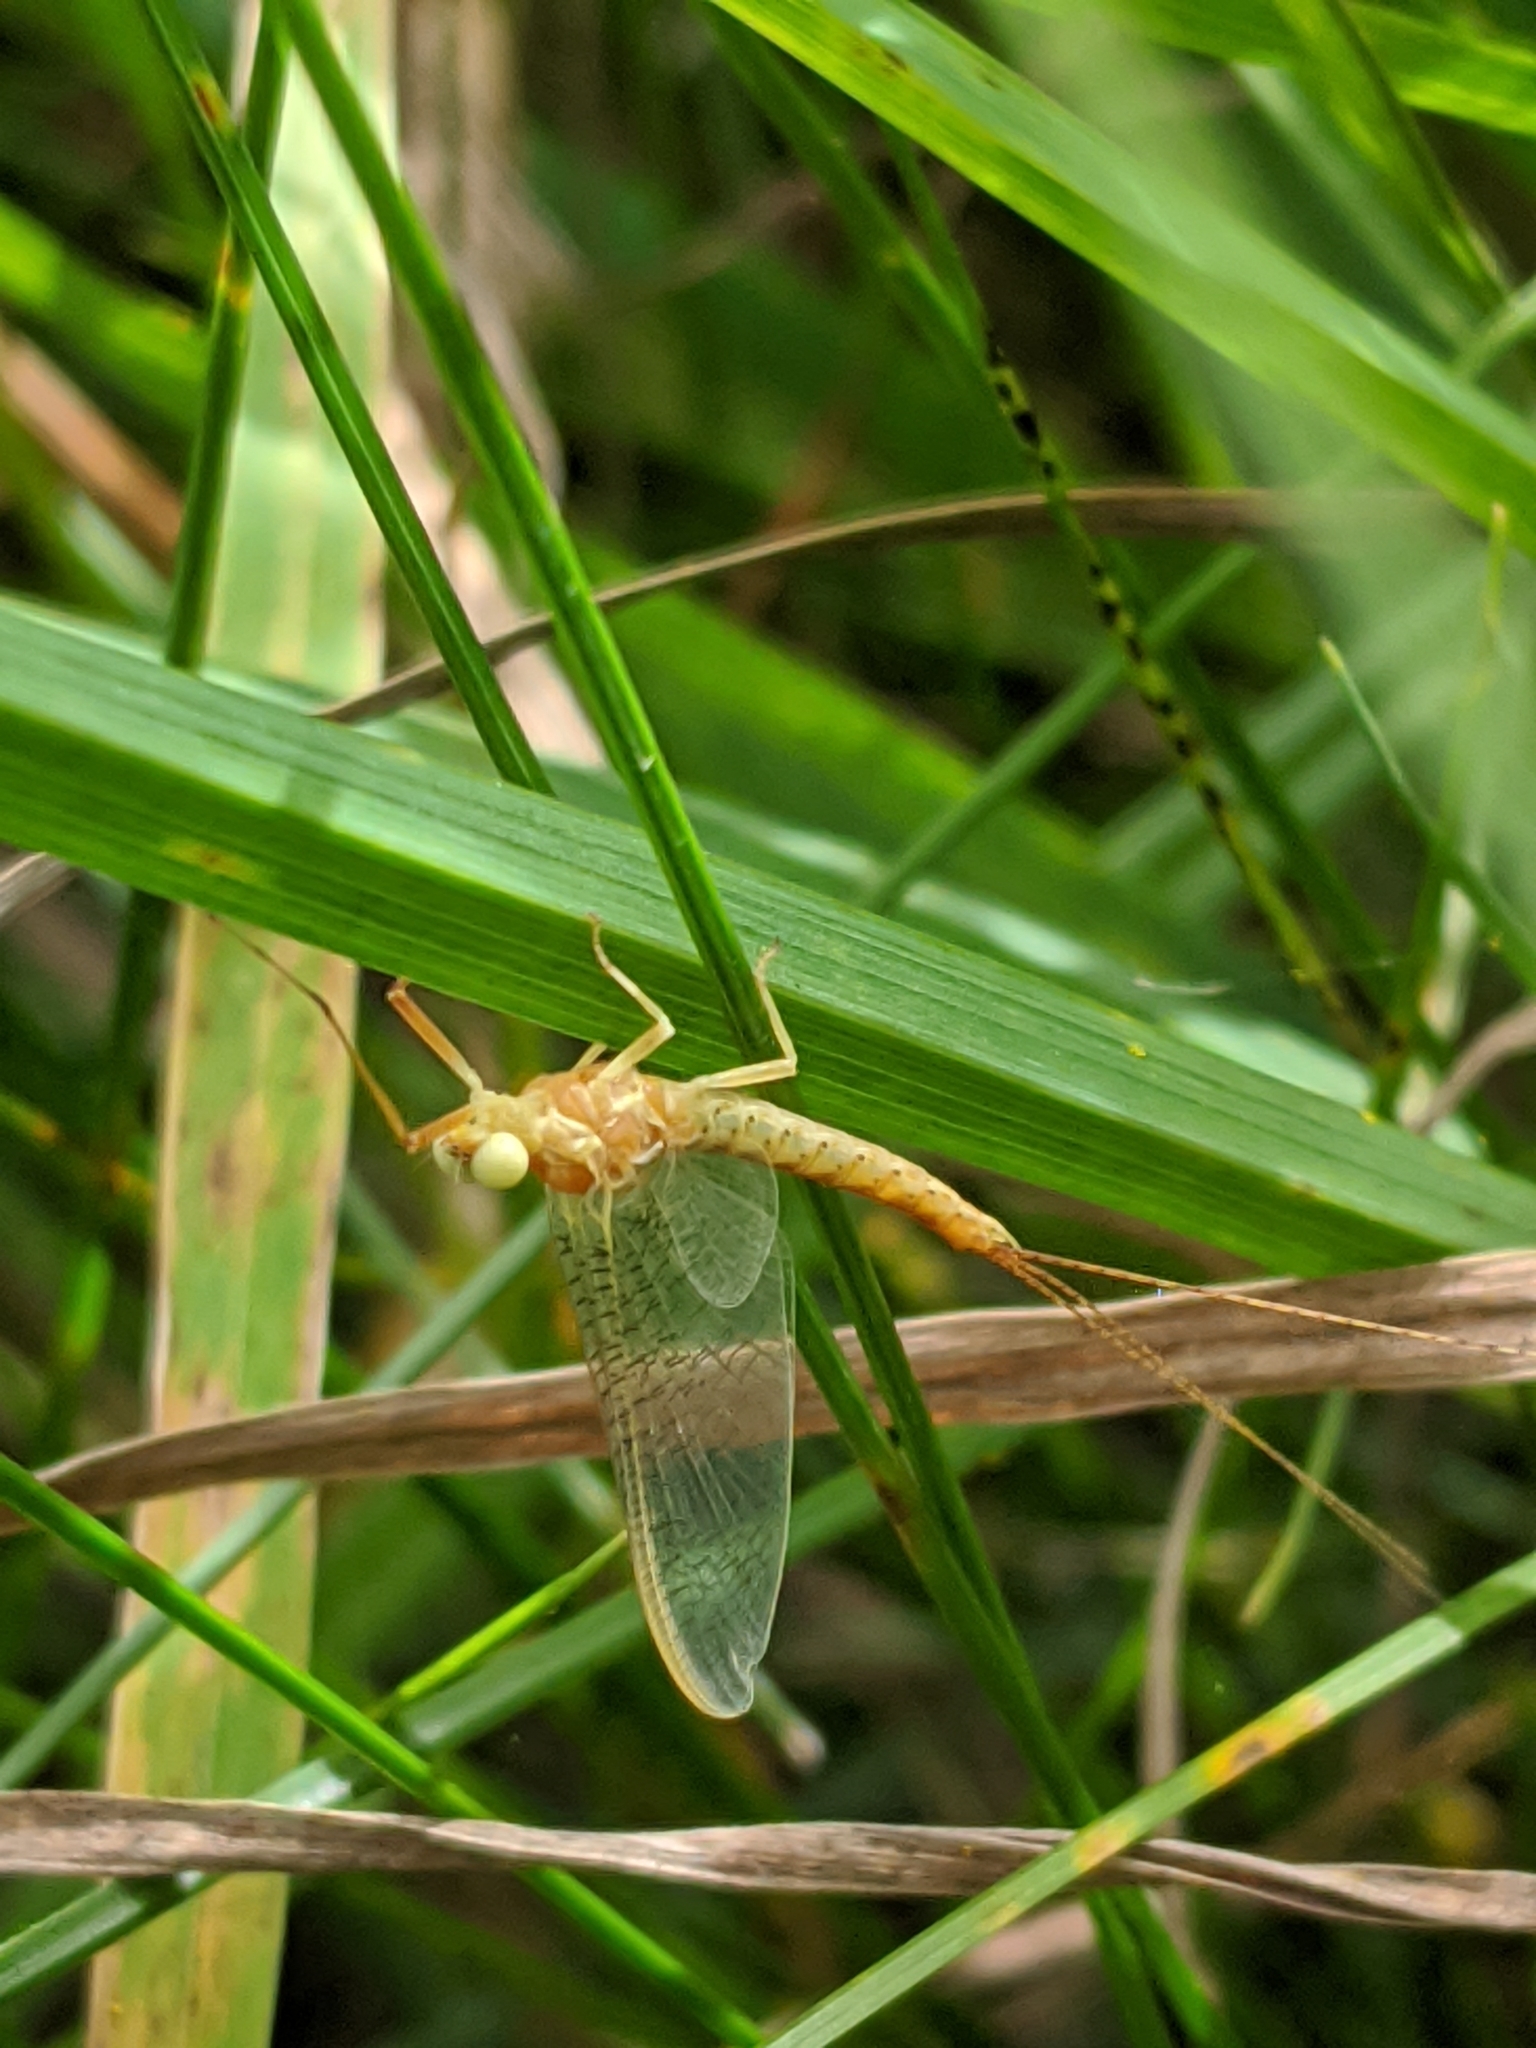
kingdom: Animalia
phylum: Arthropoda
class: Insecta
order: Ephemeroptera
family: Potamanthidae
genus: Potamanthus
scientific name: Potamanthus luteus
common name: Yellow mayfly
